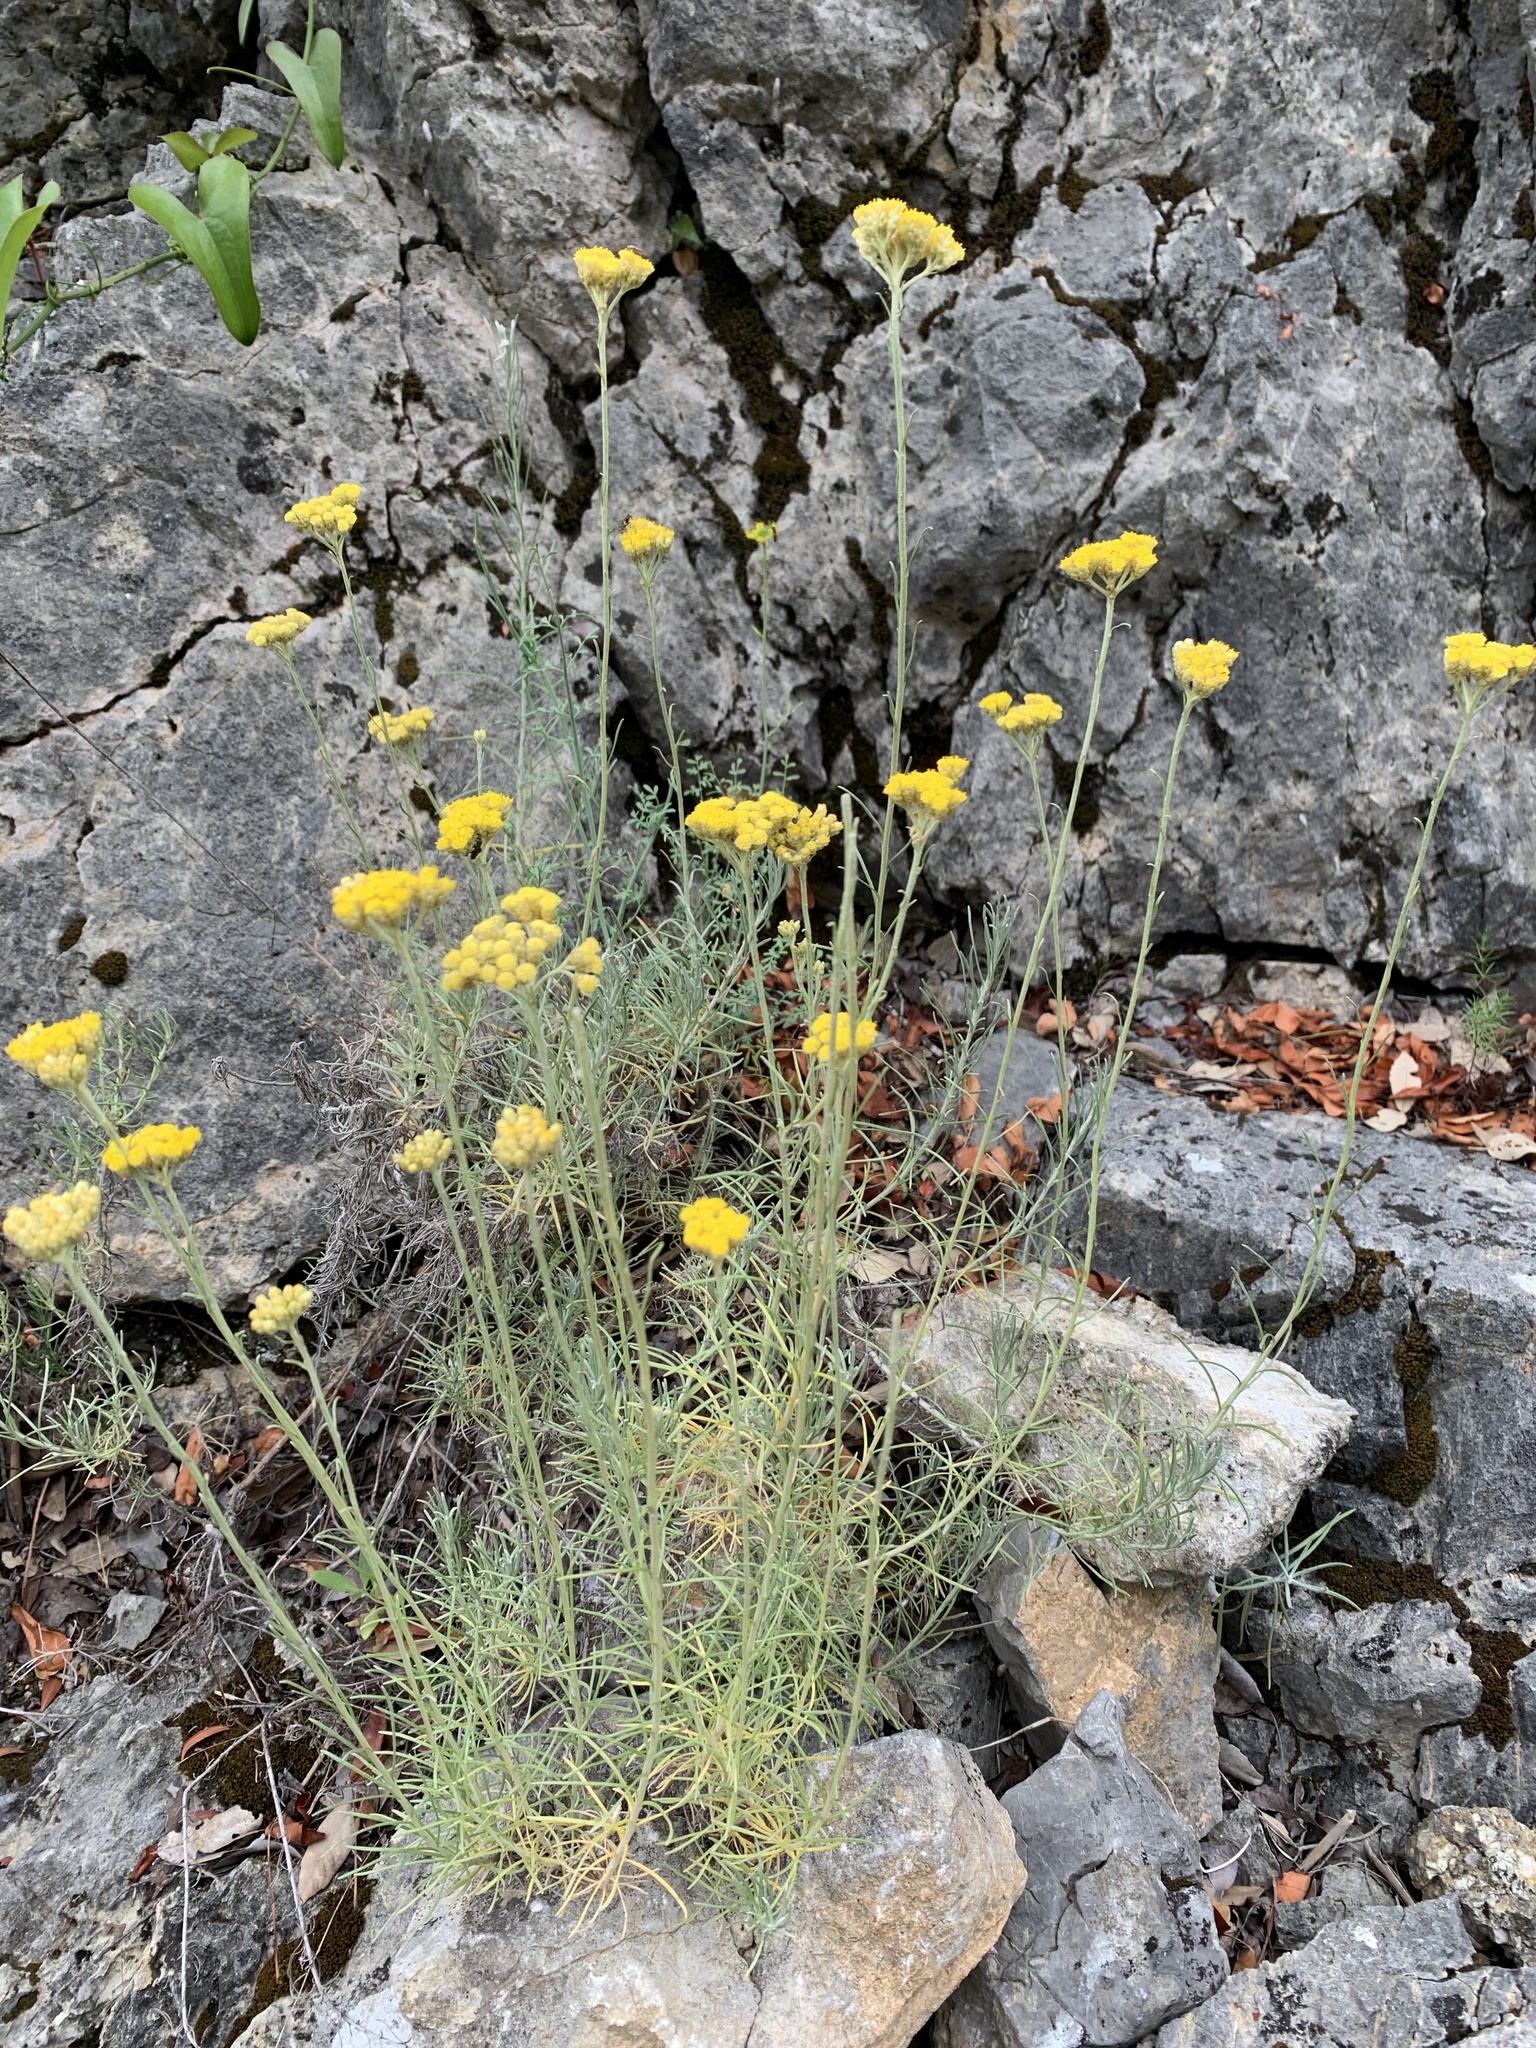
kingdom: Plantae
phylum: Tracheophyta
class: Magnoliopsida
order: Asterales
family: Asteraceae
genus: Helichrysum
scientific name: Helichrysum italicum
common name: Curryplant
